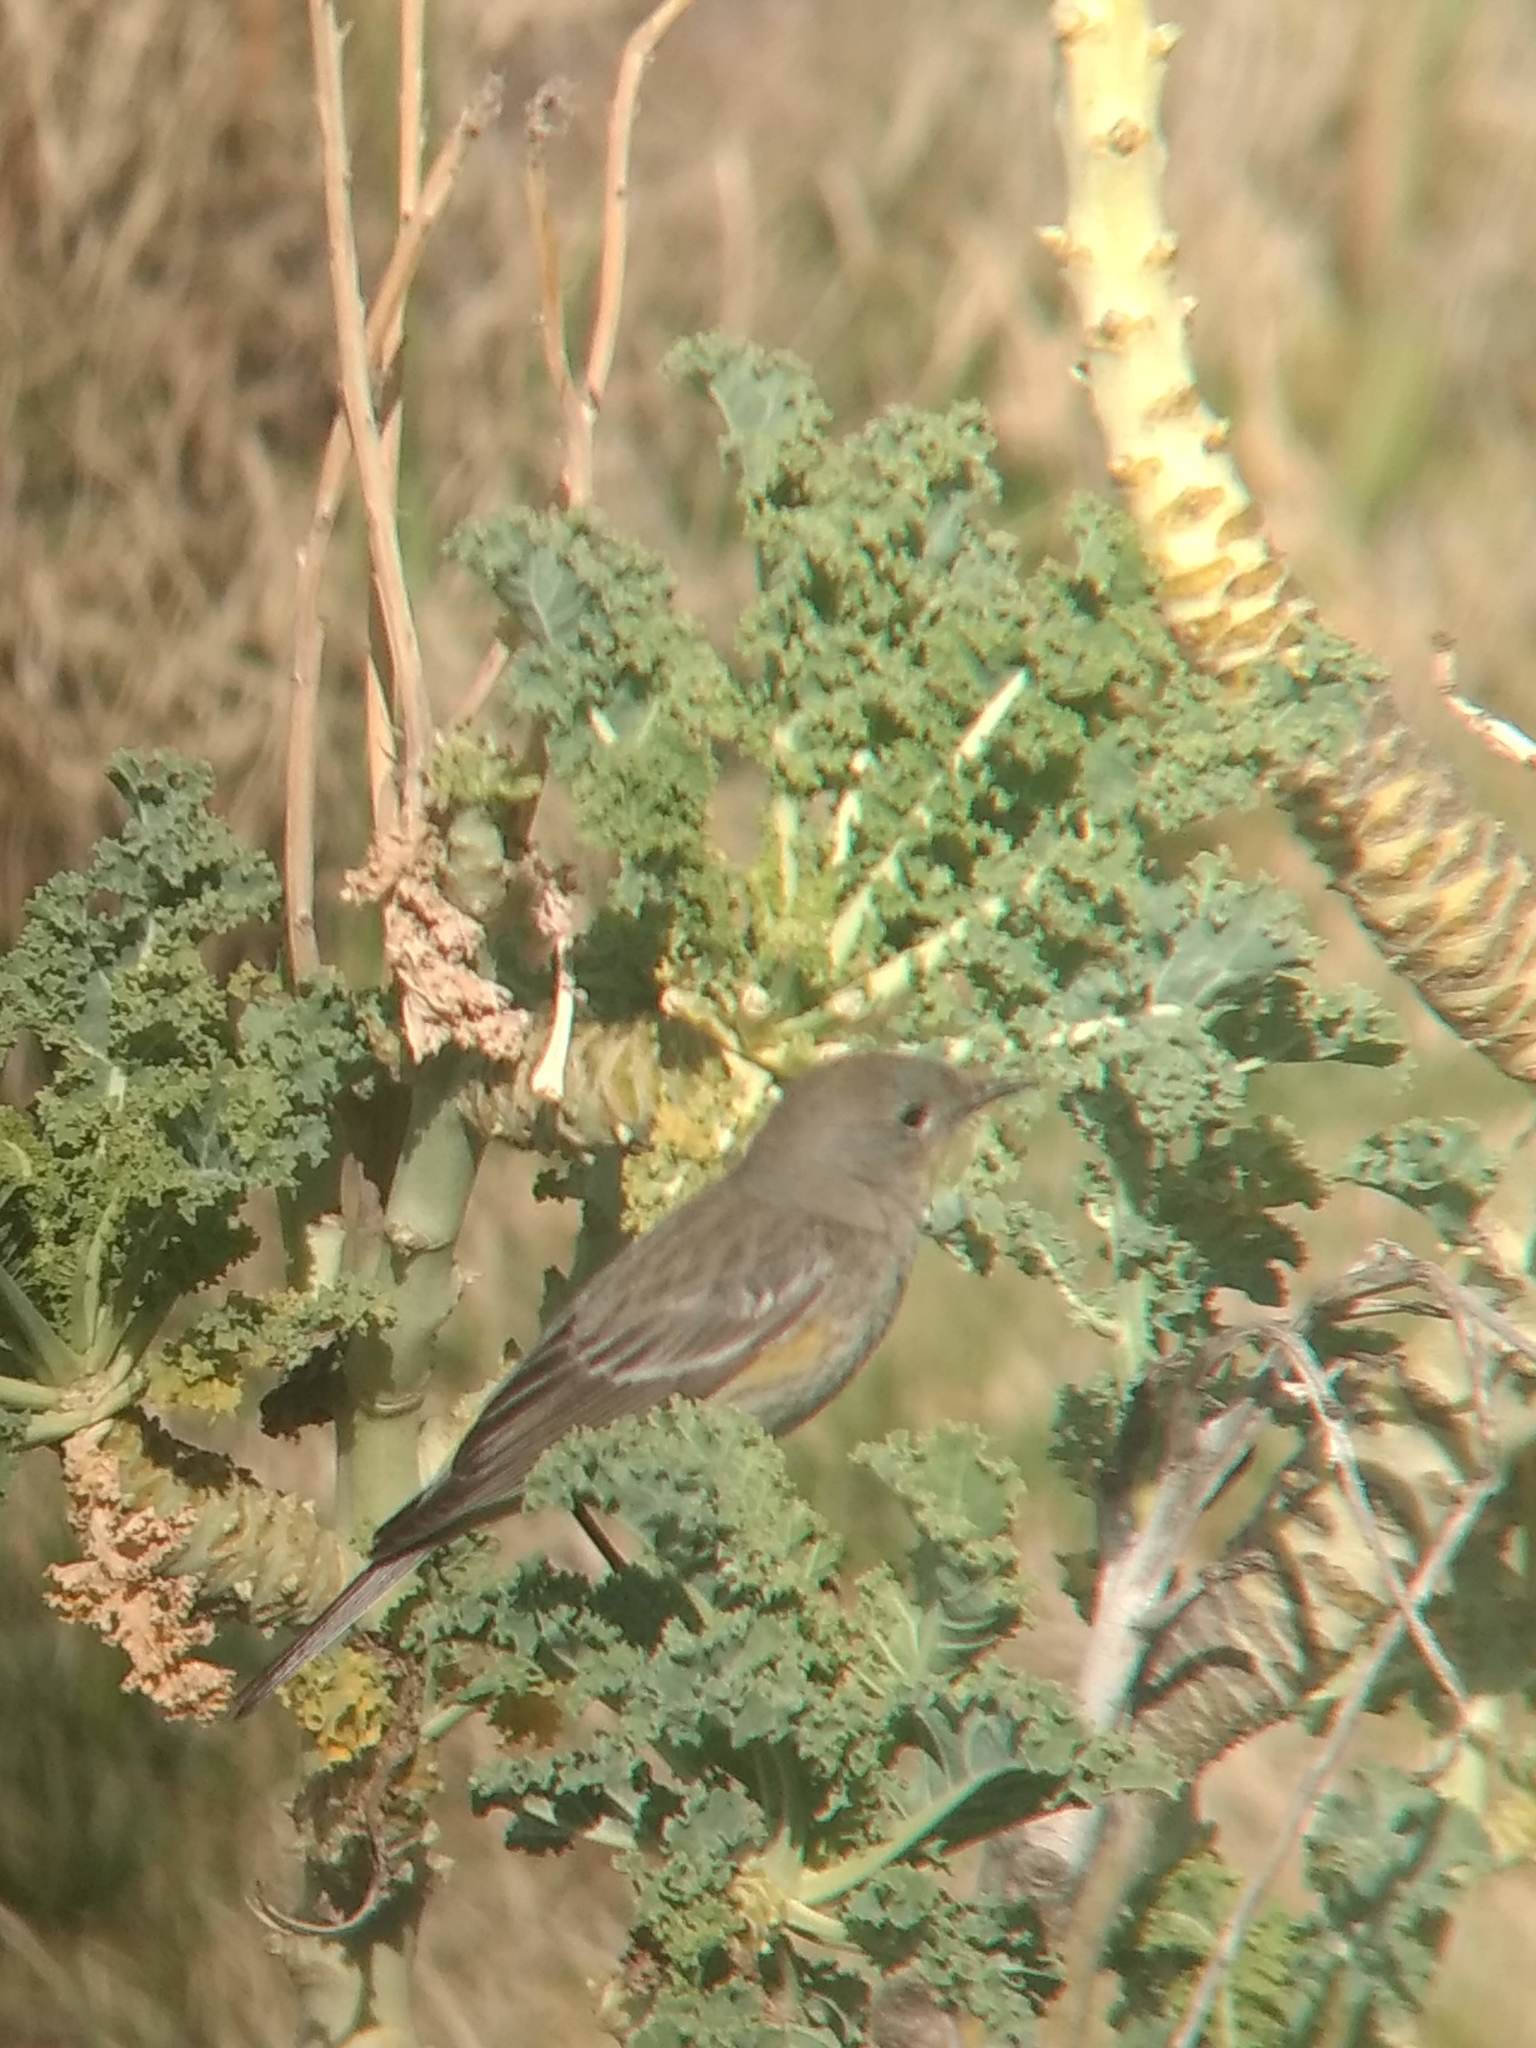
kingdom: Animalia
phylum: Chordata
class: Aves
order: Passeriformes
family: Parulidae
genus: Setophaga
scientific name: Setophaga coronata
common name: Myrtle warbler
